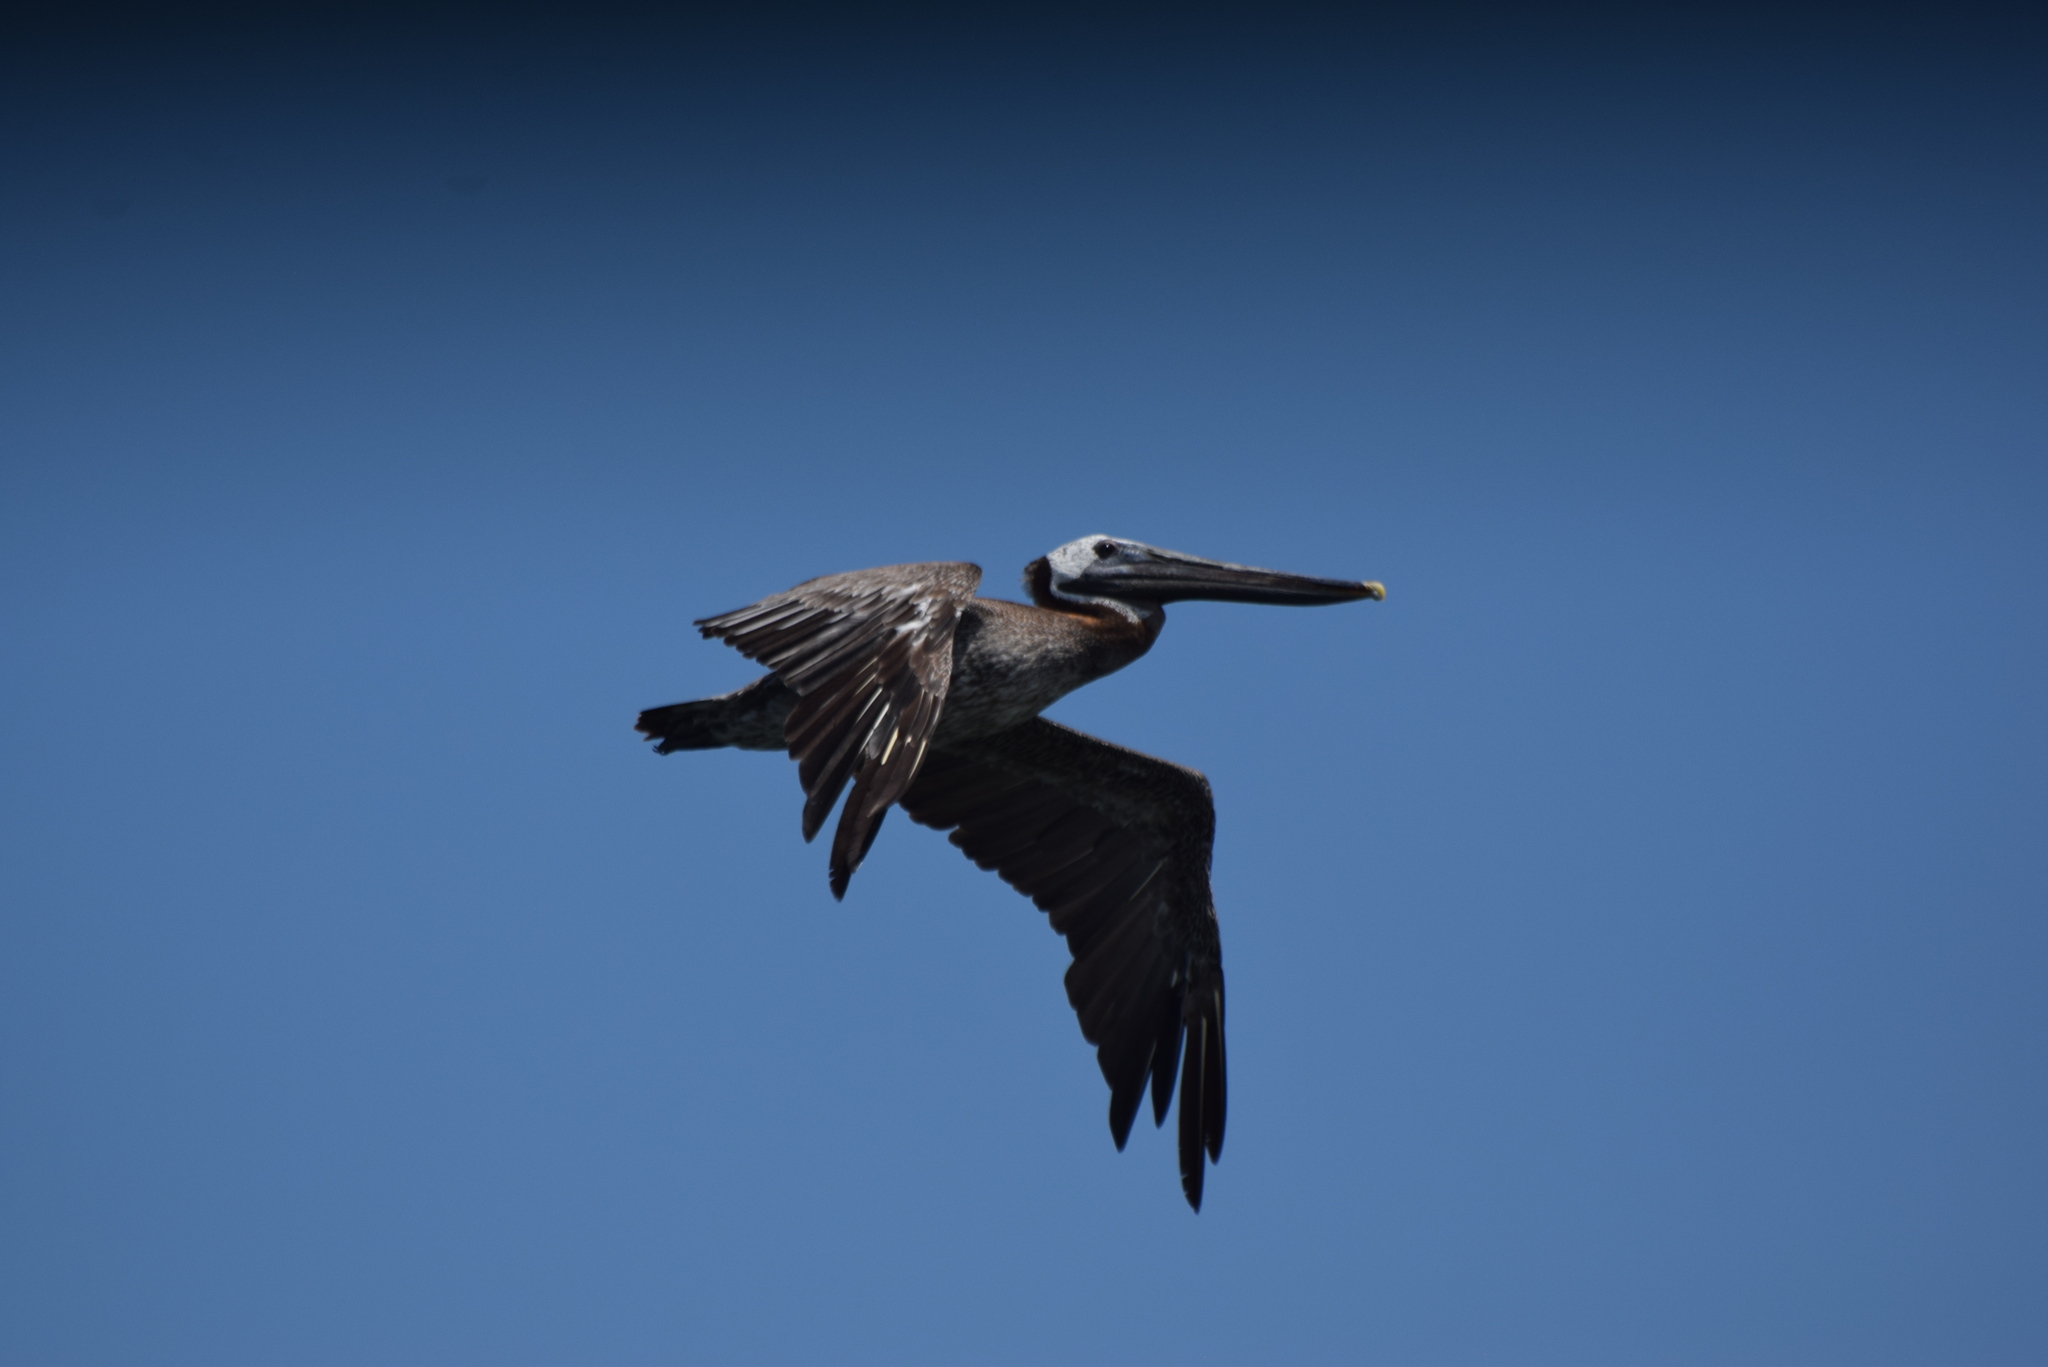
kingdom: Animalia
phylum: Chordata
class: Aves
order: Pelecaniformes
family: Pelecanidae
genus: Pelecanus
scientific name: Pelecanus occidentalis
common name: Brown pelican
